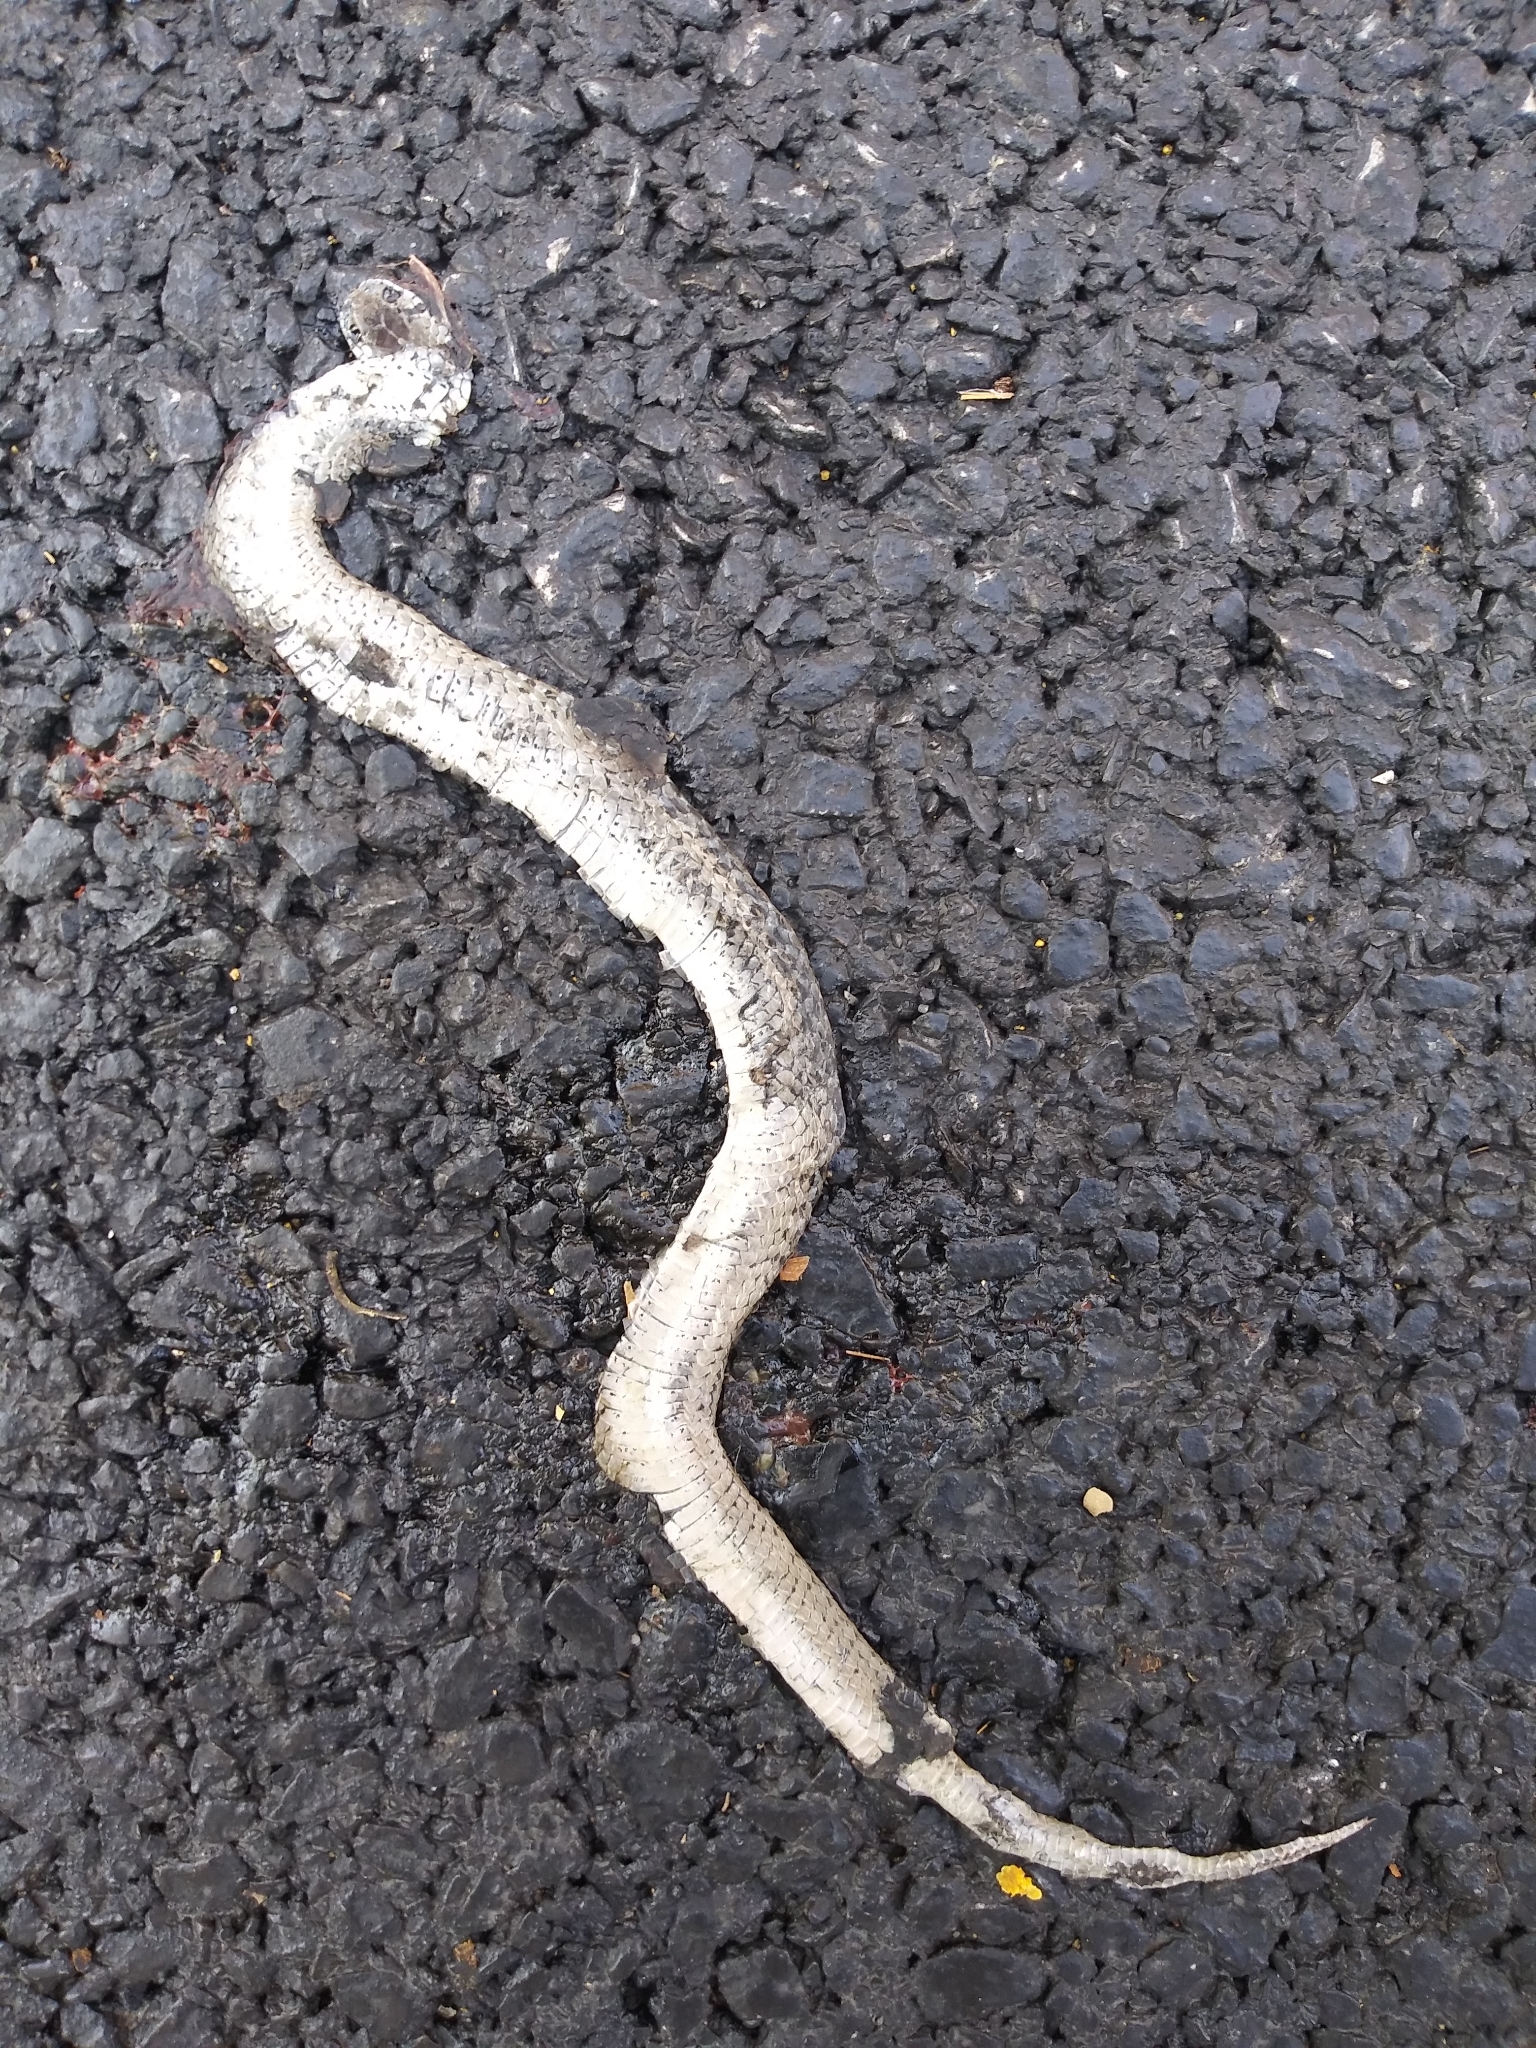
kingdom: Animalia
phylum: Chordata
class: Squamata
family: Colubridae
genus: Storeria
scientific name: Storeria dekayi
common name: (dekay’s) brown snake
